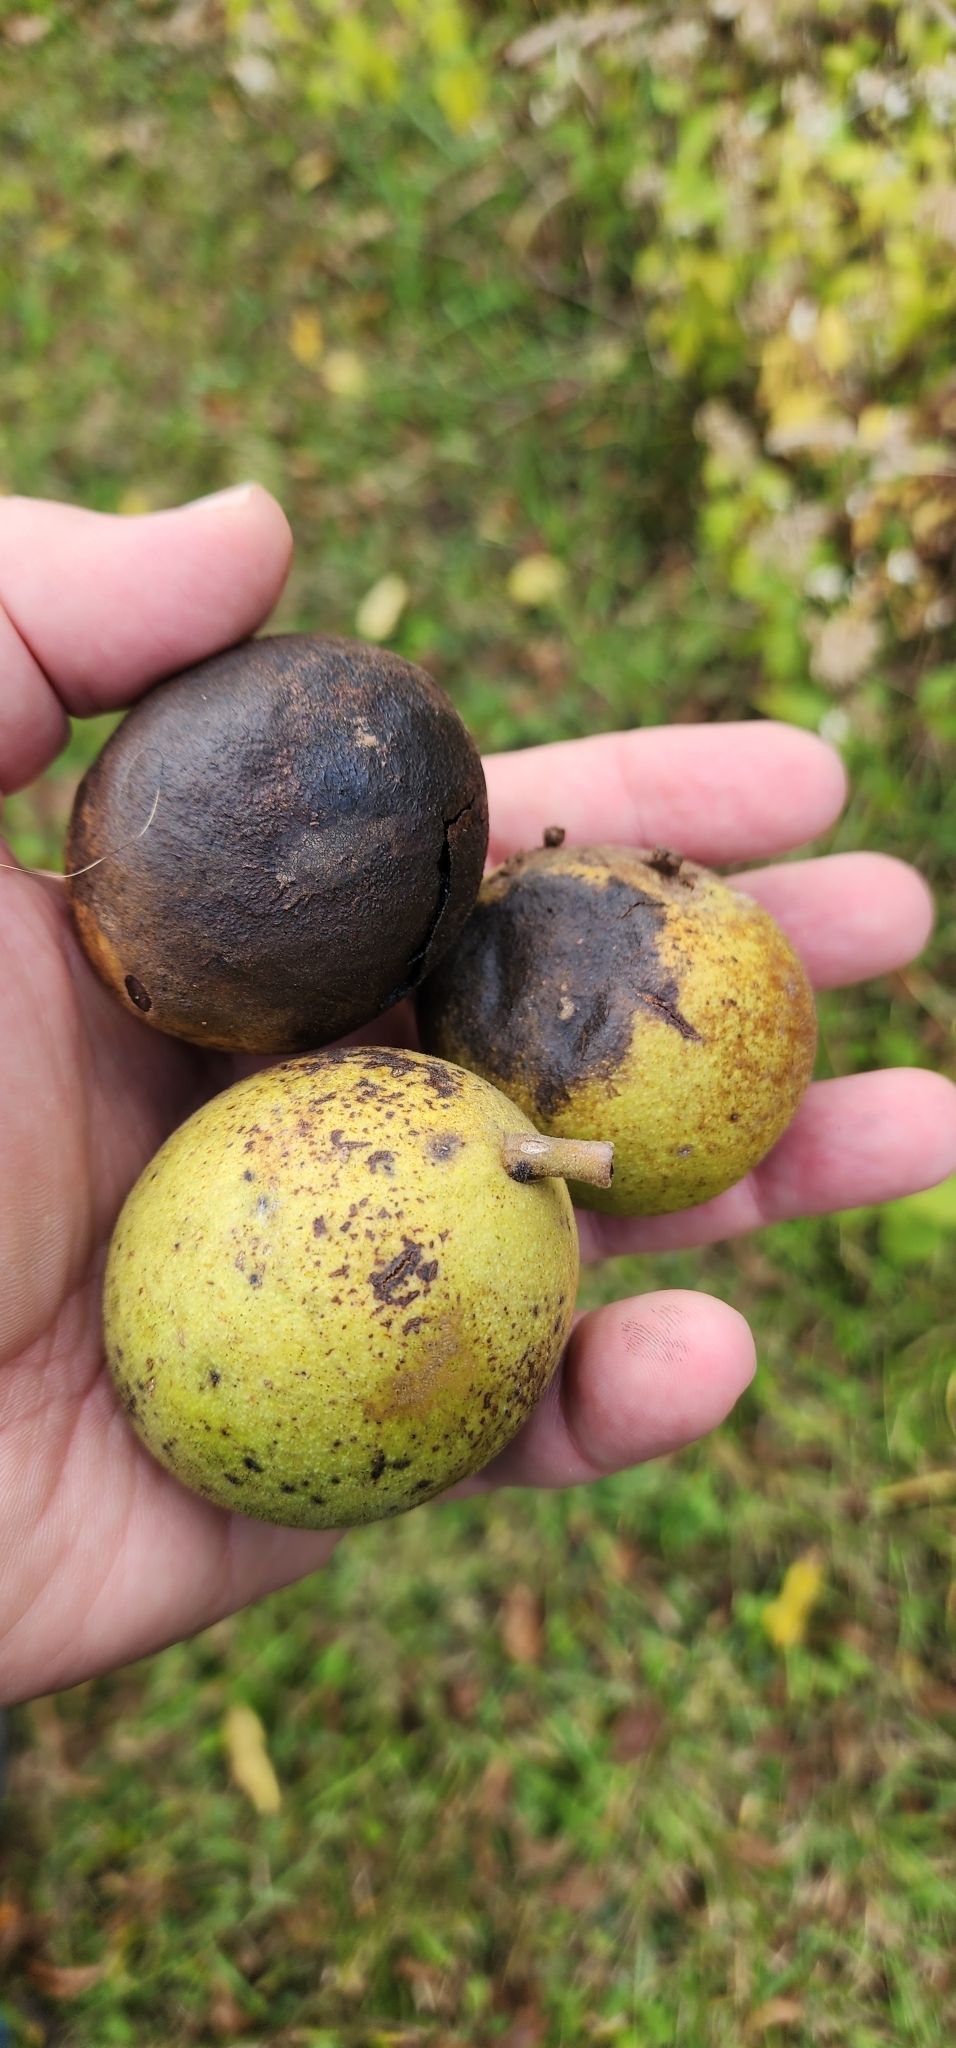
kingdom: Plantae
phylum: Tracheophyta
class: Magnoliopsida
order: Fagales
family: Juglandaceae
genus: Juglans
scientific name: Juglans nigra
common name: Black walnut
